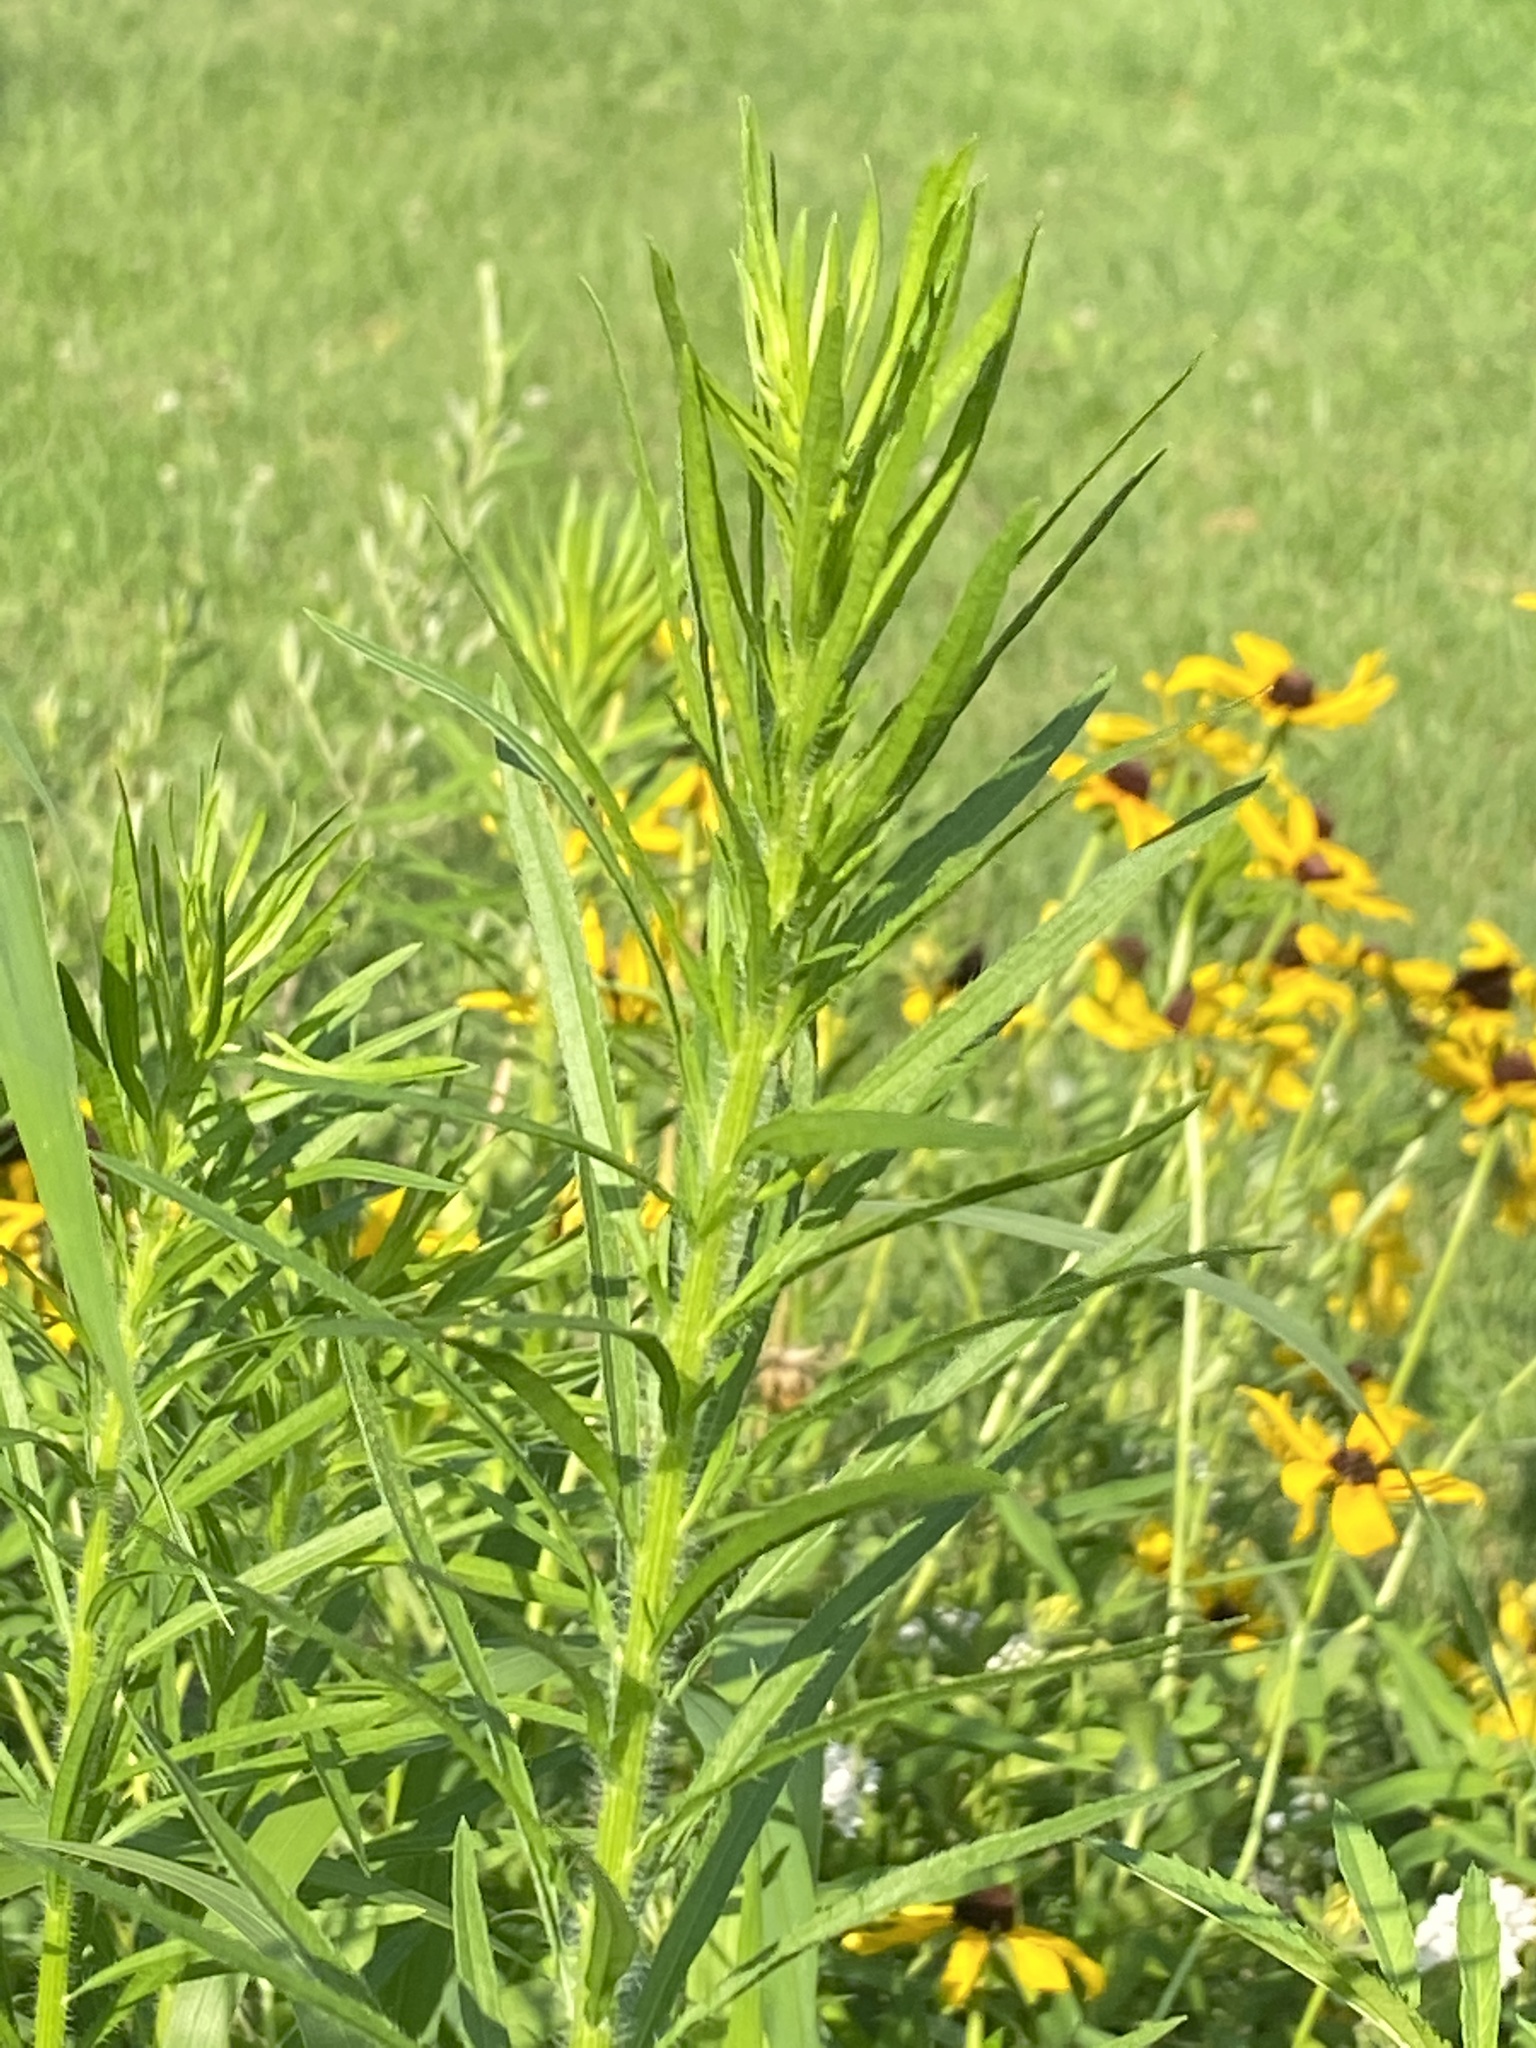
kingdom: Plantae
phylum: Tracheophyta
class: Magnoliopsida
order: Asterales
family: Asteraceae
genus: Erigeron
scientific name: Erigeron canadensis
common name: Canadian fleabane
